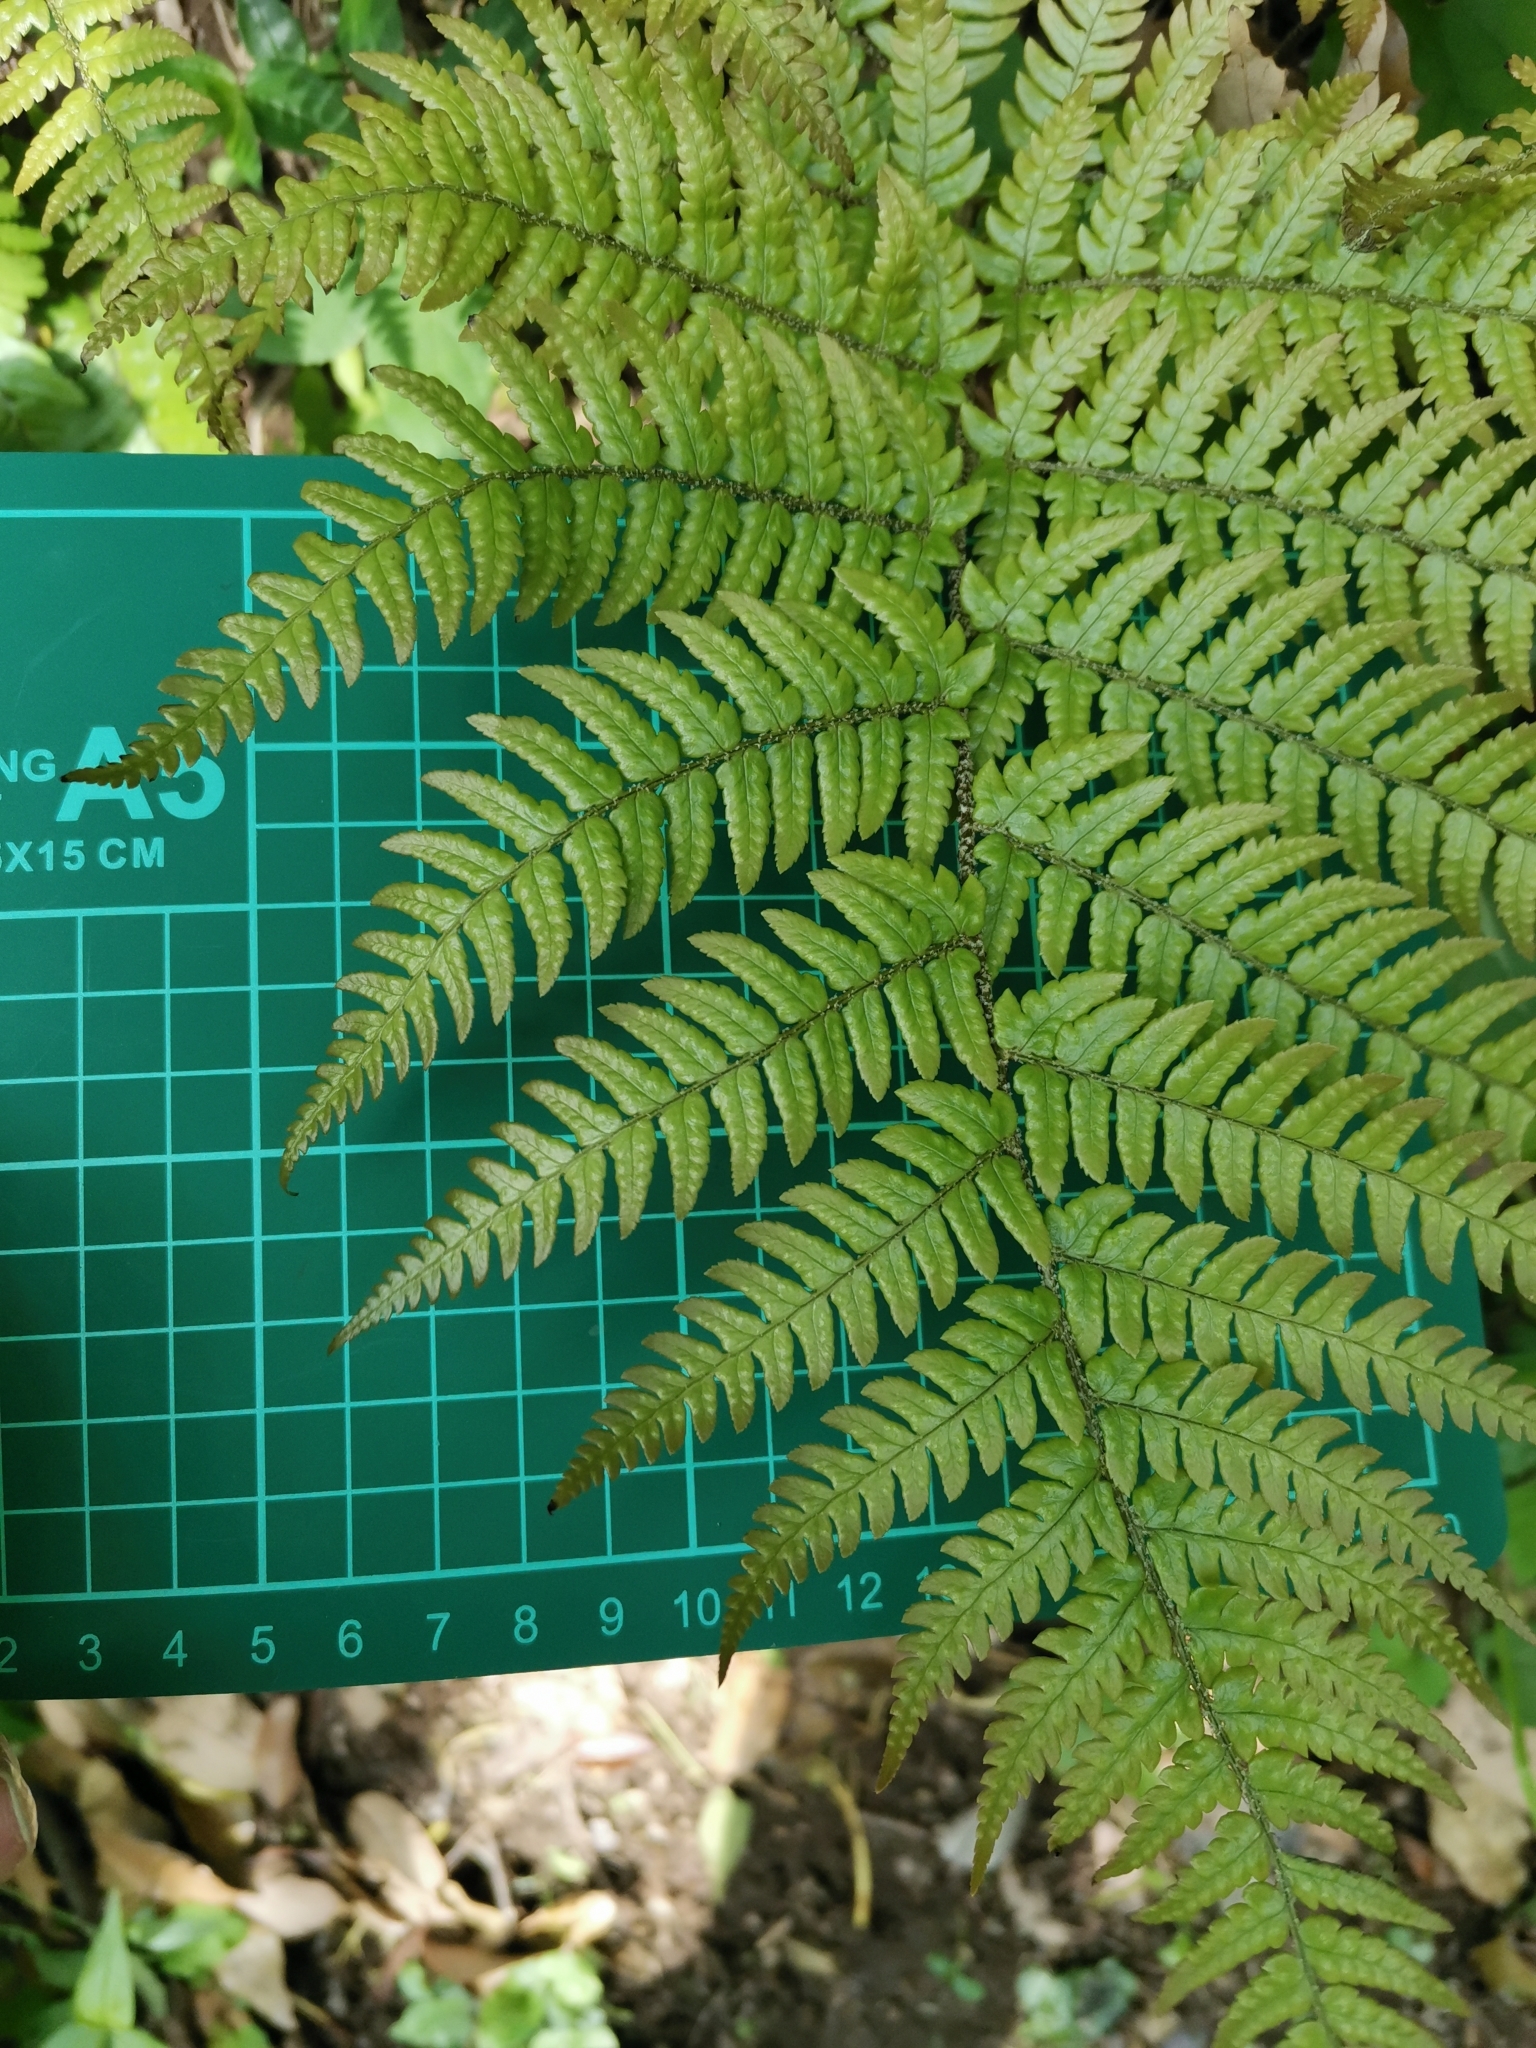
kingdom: Plantae
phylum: Tracheophyta
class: Polypodiopsida
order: Polypodiales
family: Dryopteridaceae
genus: Dryopteris
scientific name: Dryopteris immixta
